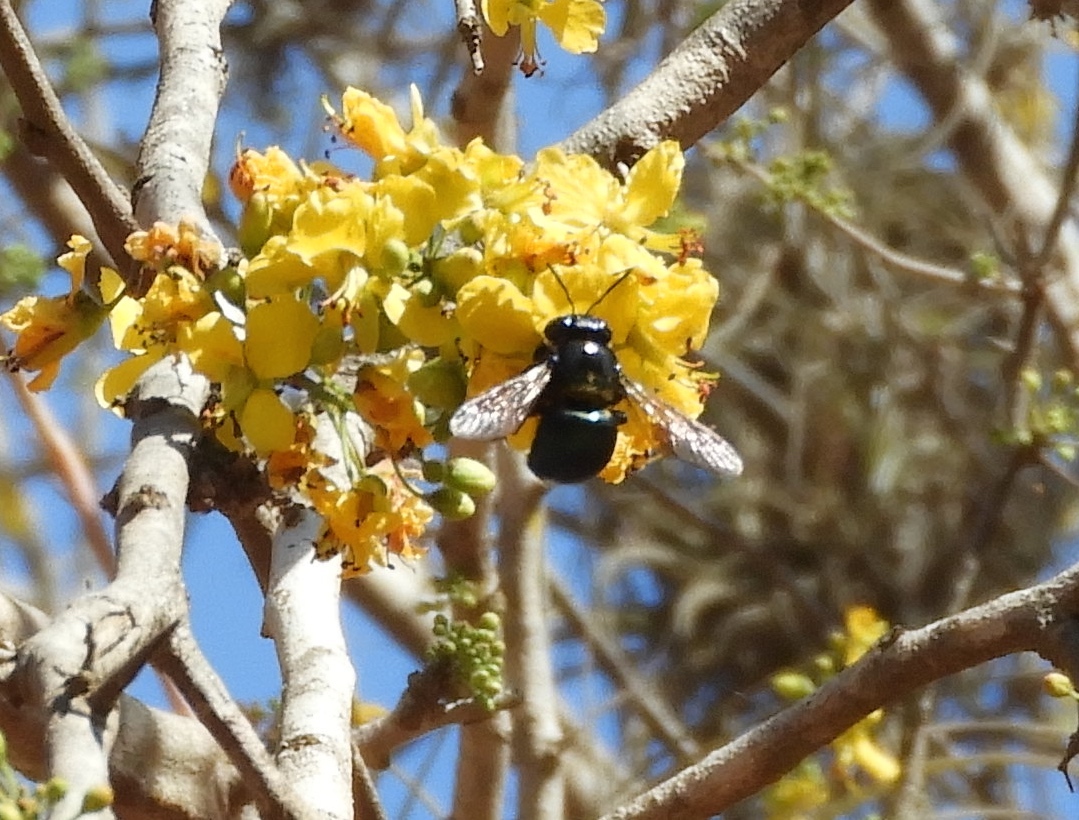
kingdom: Animalia
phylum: Arthropoda
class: Insecta
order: Hymenoptera
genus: Schonnherria
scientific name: Schonnherria
